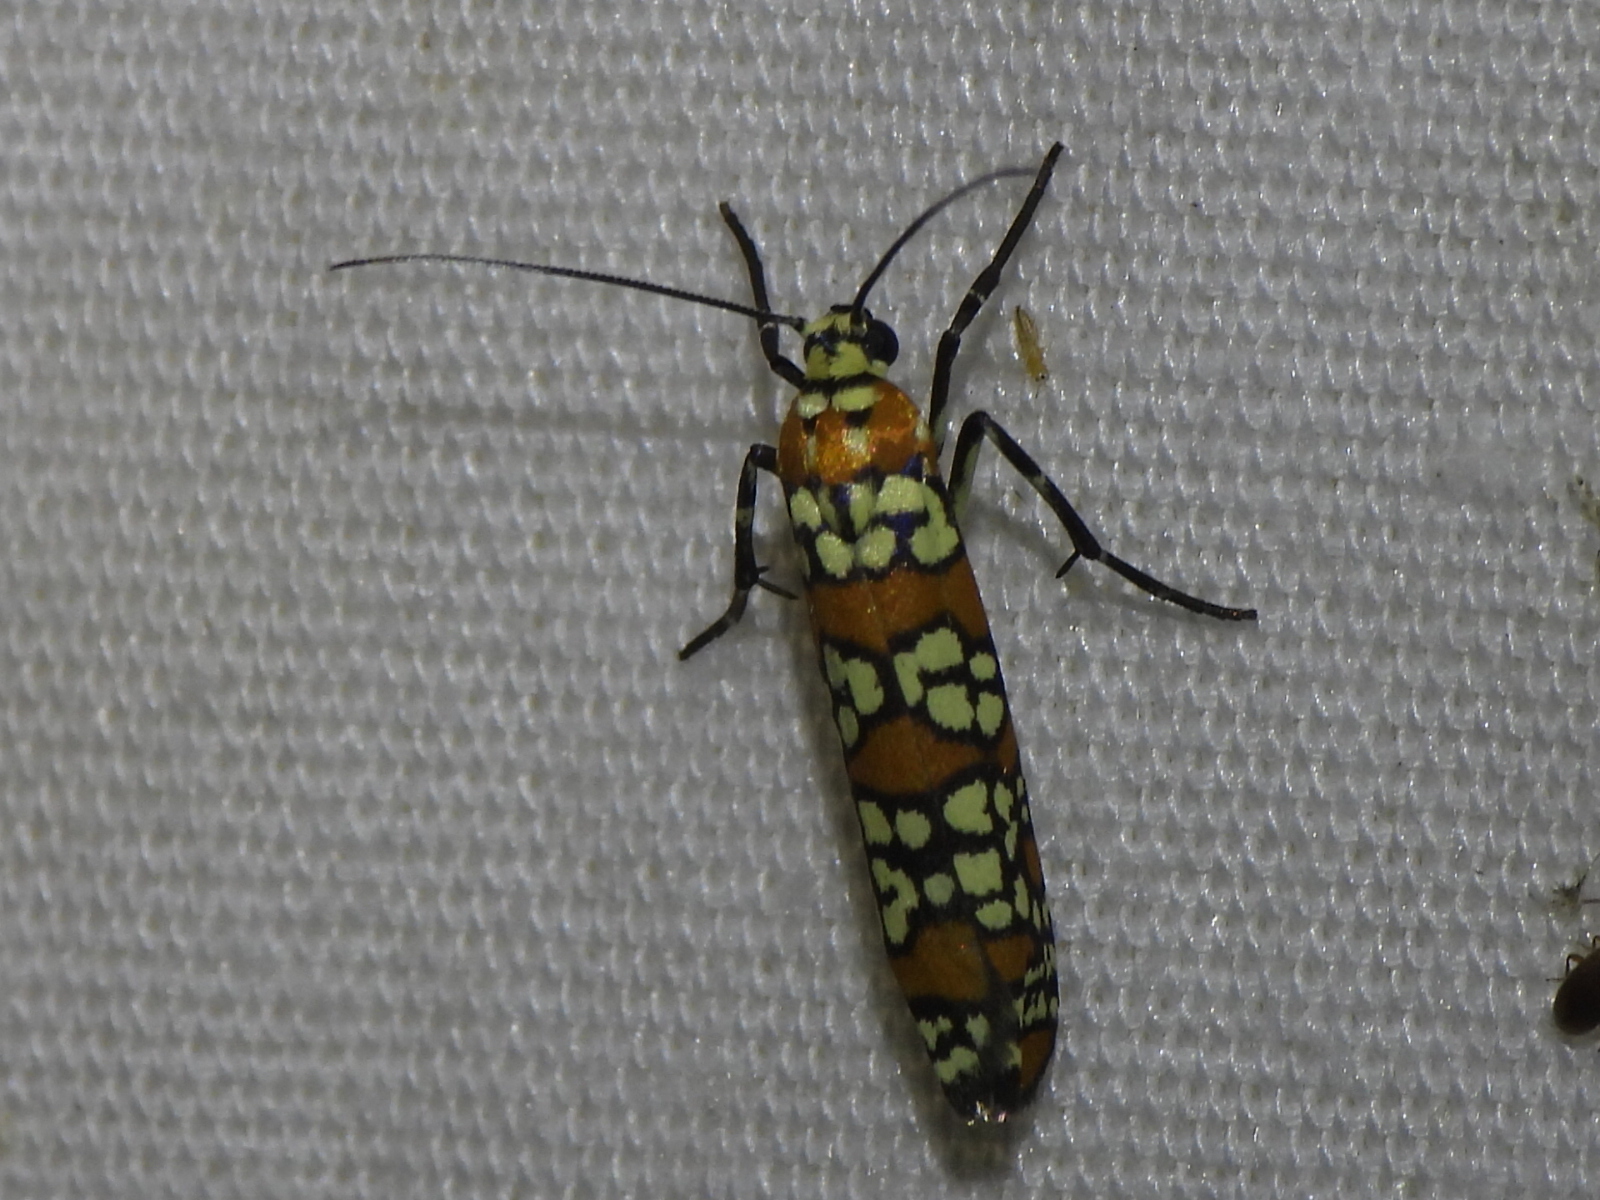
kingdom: Animalia
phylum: Arthropoda
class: Insecta
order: Lepidoptera
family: Attevidae
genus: Atteva
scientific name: Atteva punctella
